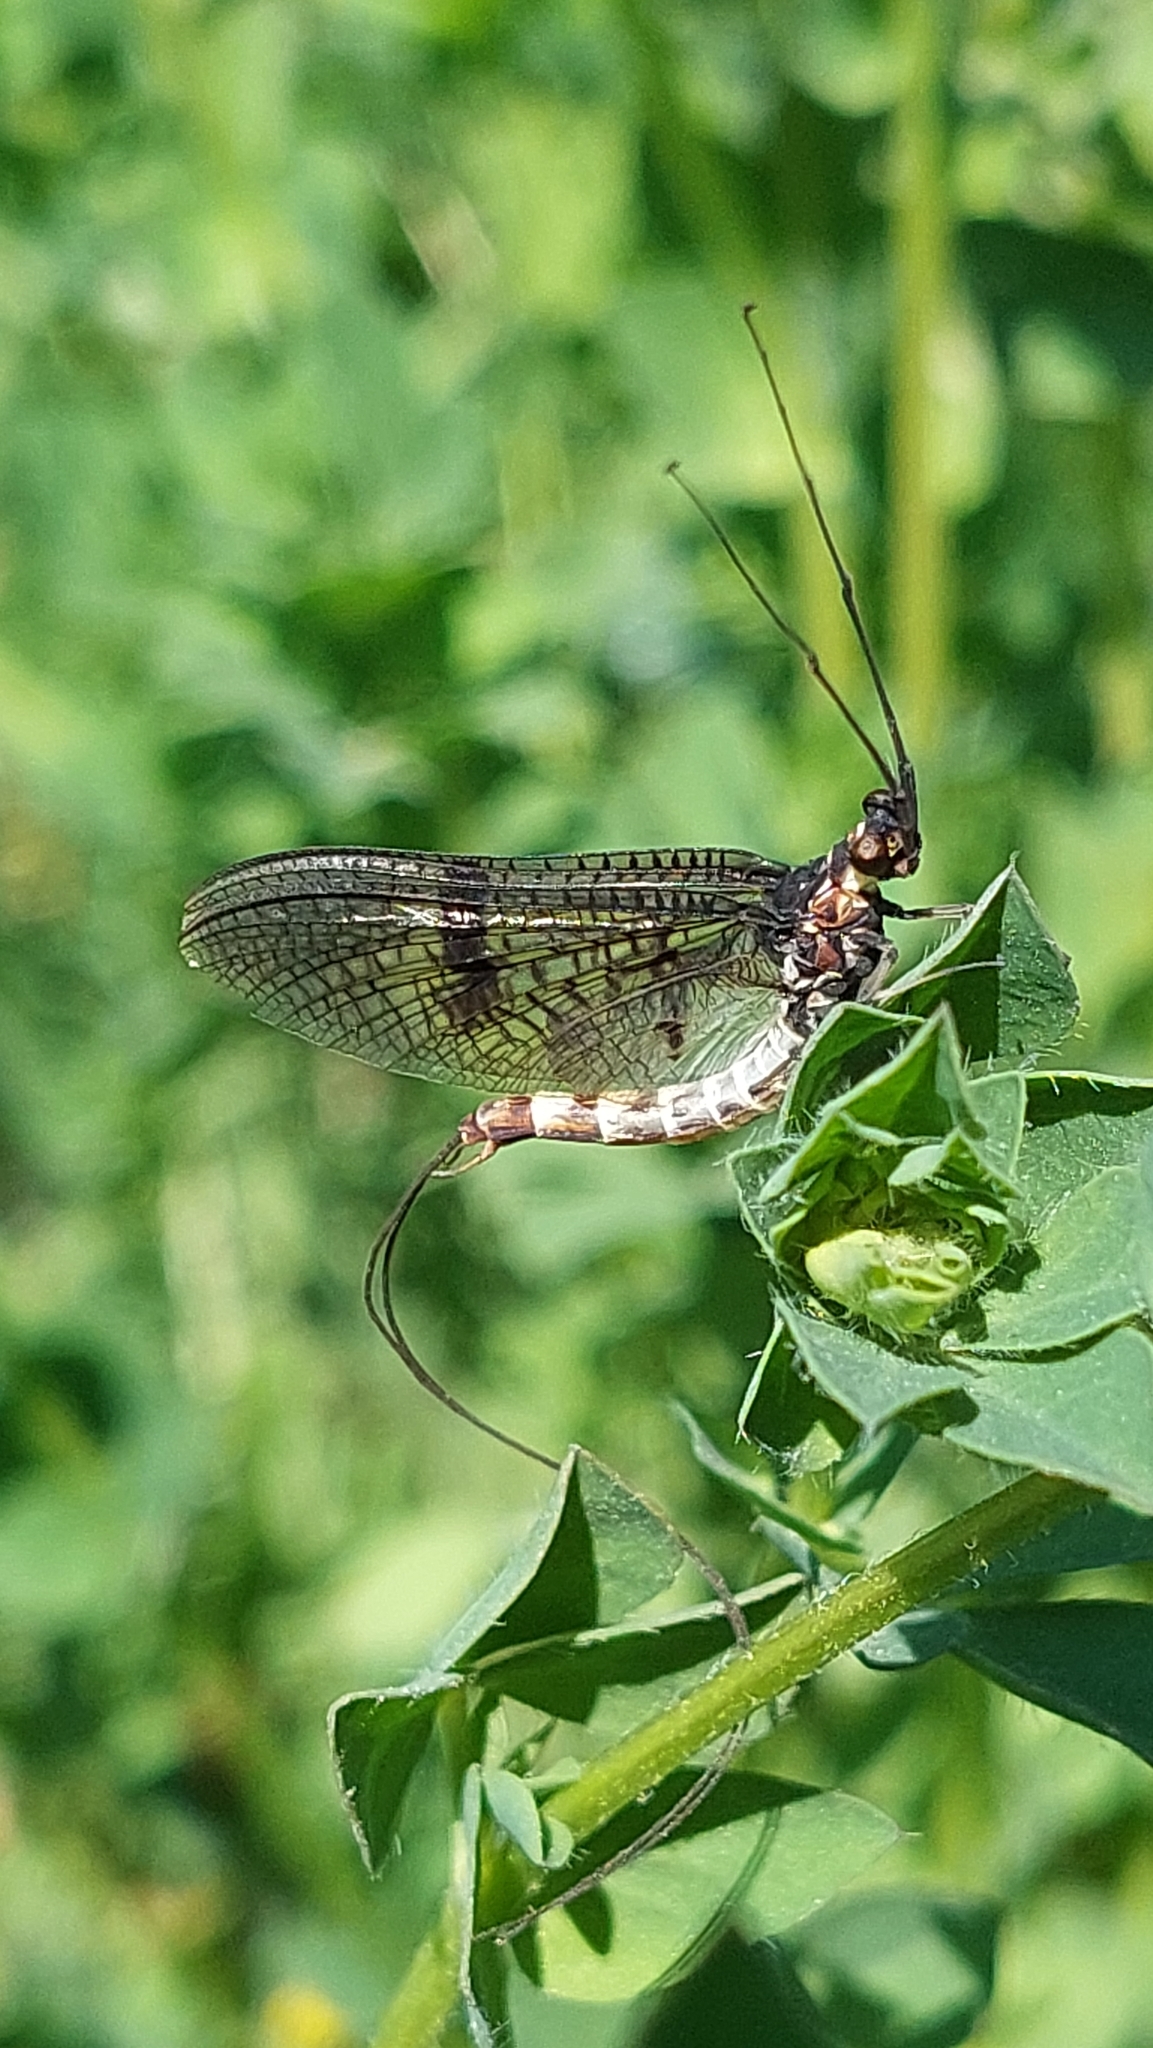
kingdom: Animalia
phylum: Arthropoda
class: Insecta
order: Ephemeroptera
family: Ephemeridae
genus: Ephemera
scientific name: Ephemera danica
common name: Green dun
